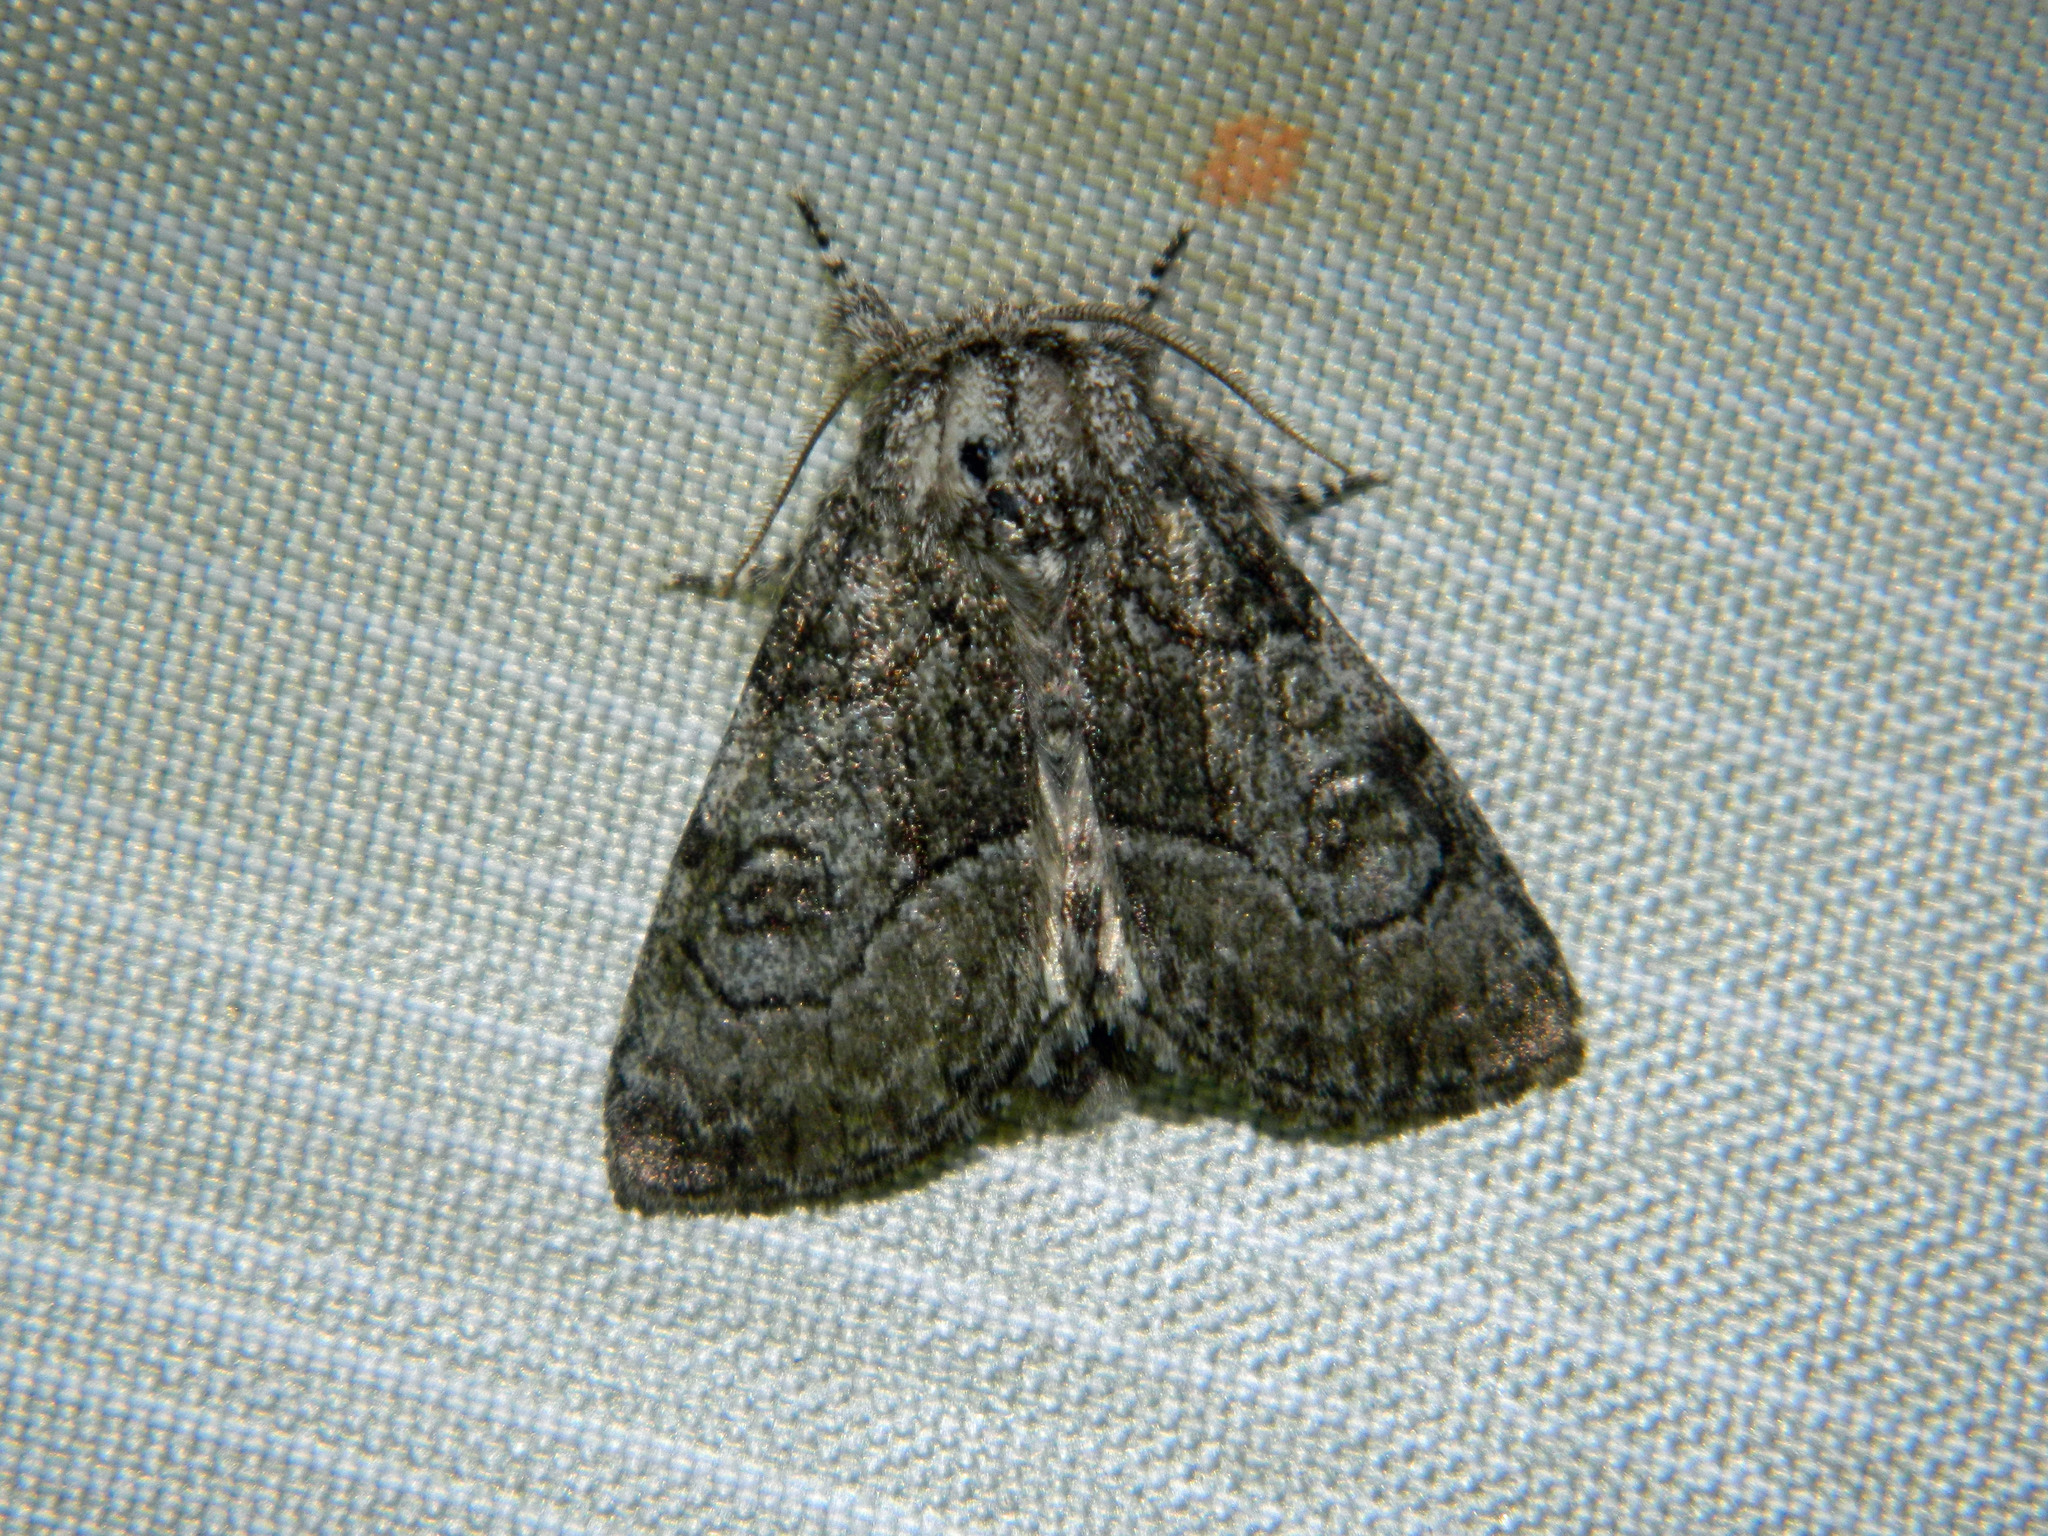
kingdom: Animalia
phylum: Arthropoda
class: Insecta
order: Lepidoptera
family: Noctuidae
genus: Raphia
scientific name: Raphia frater
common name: Brother
